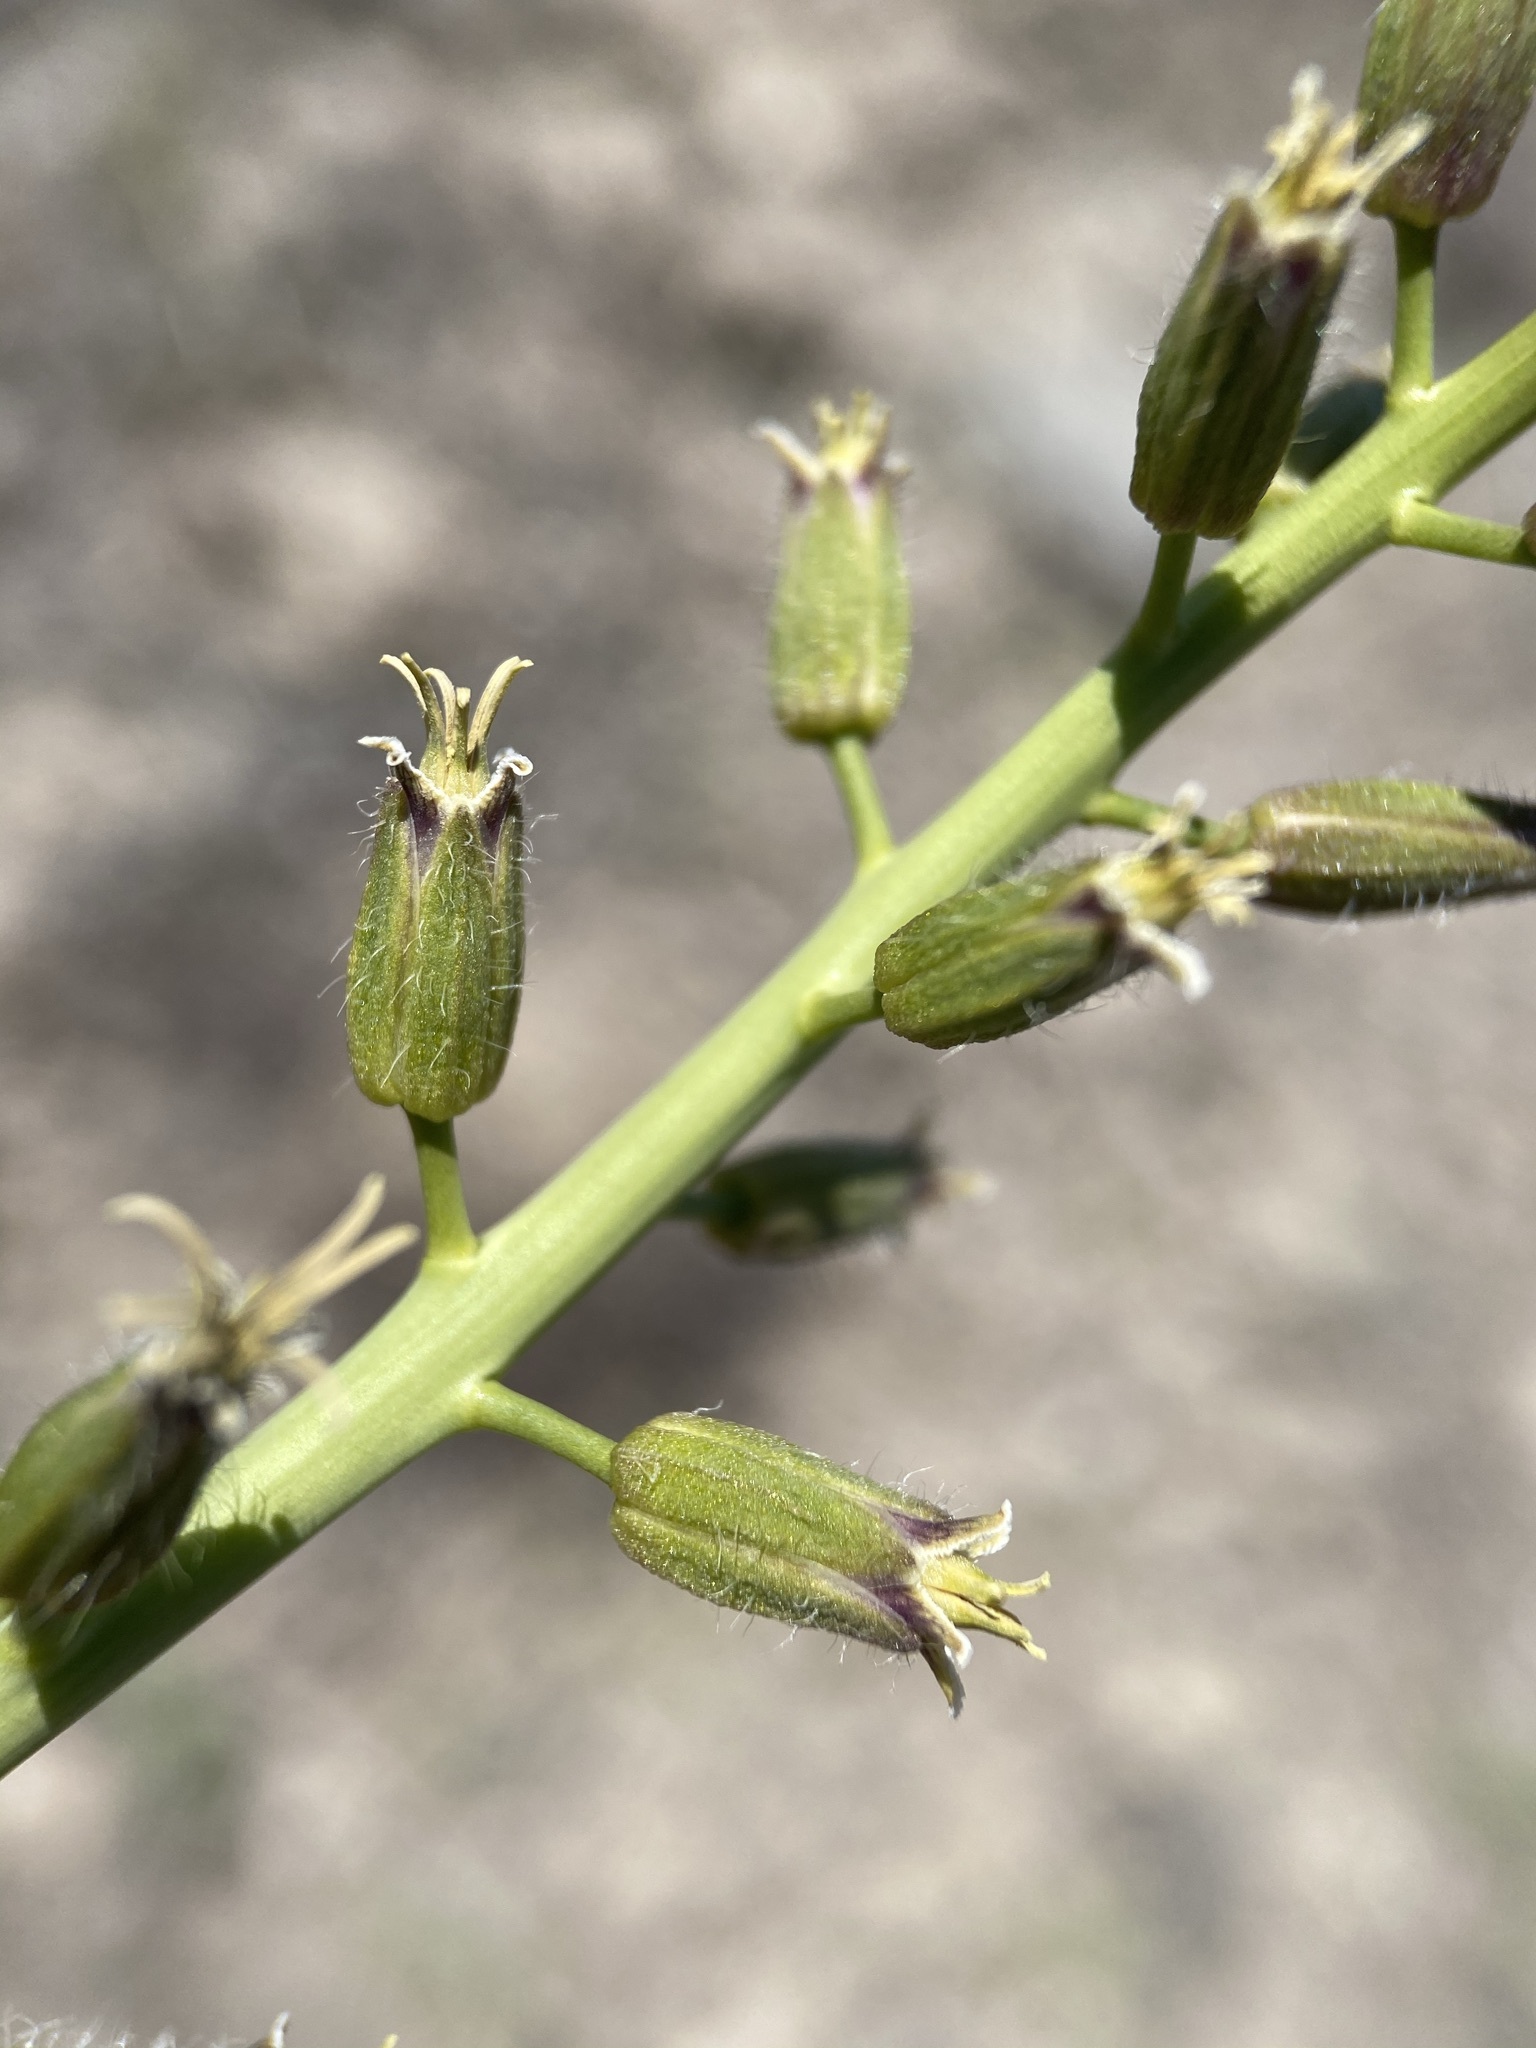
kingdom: Plantae
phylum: Tracheophyta
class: Magnoliopsida
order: Brassicales
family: Brassicaceae
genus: Streptanthus
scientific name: Streptanthus pilosus
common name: Chocolate drops
